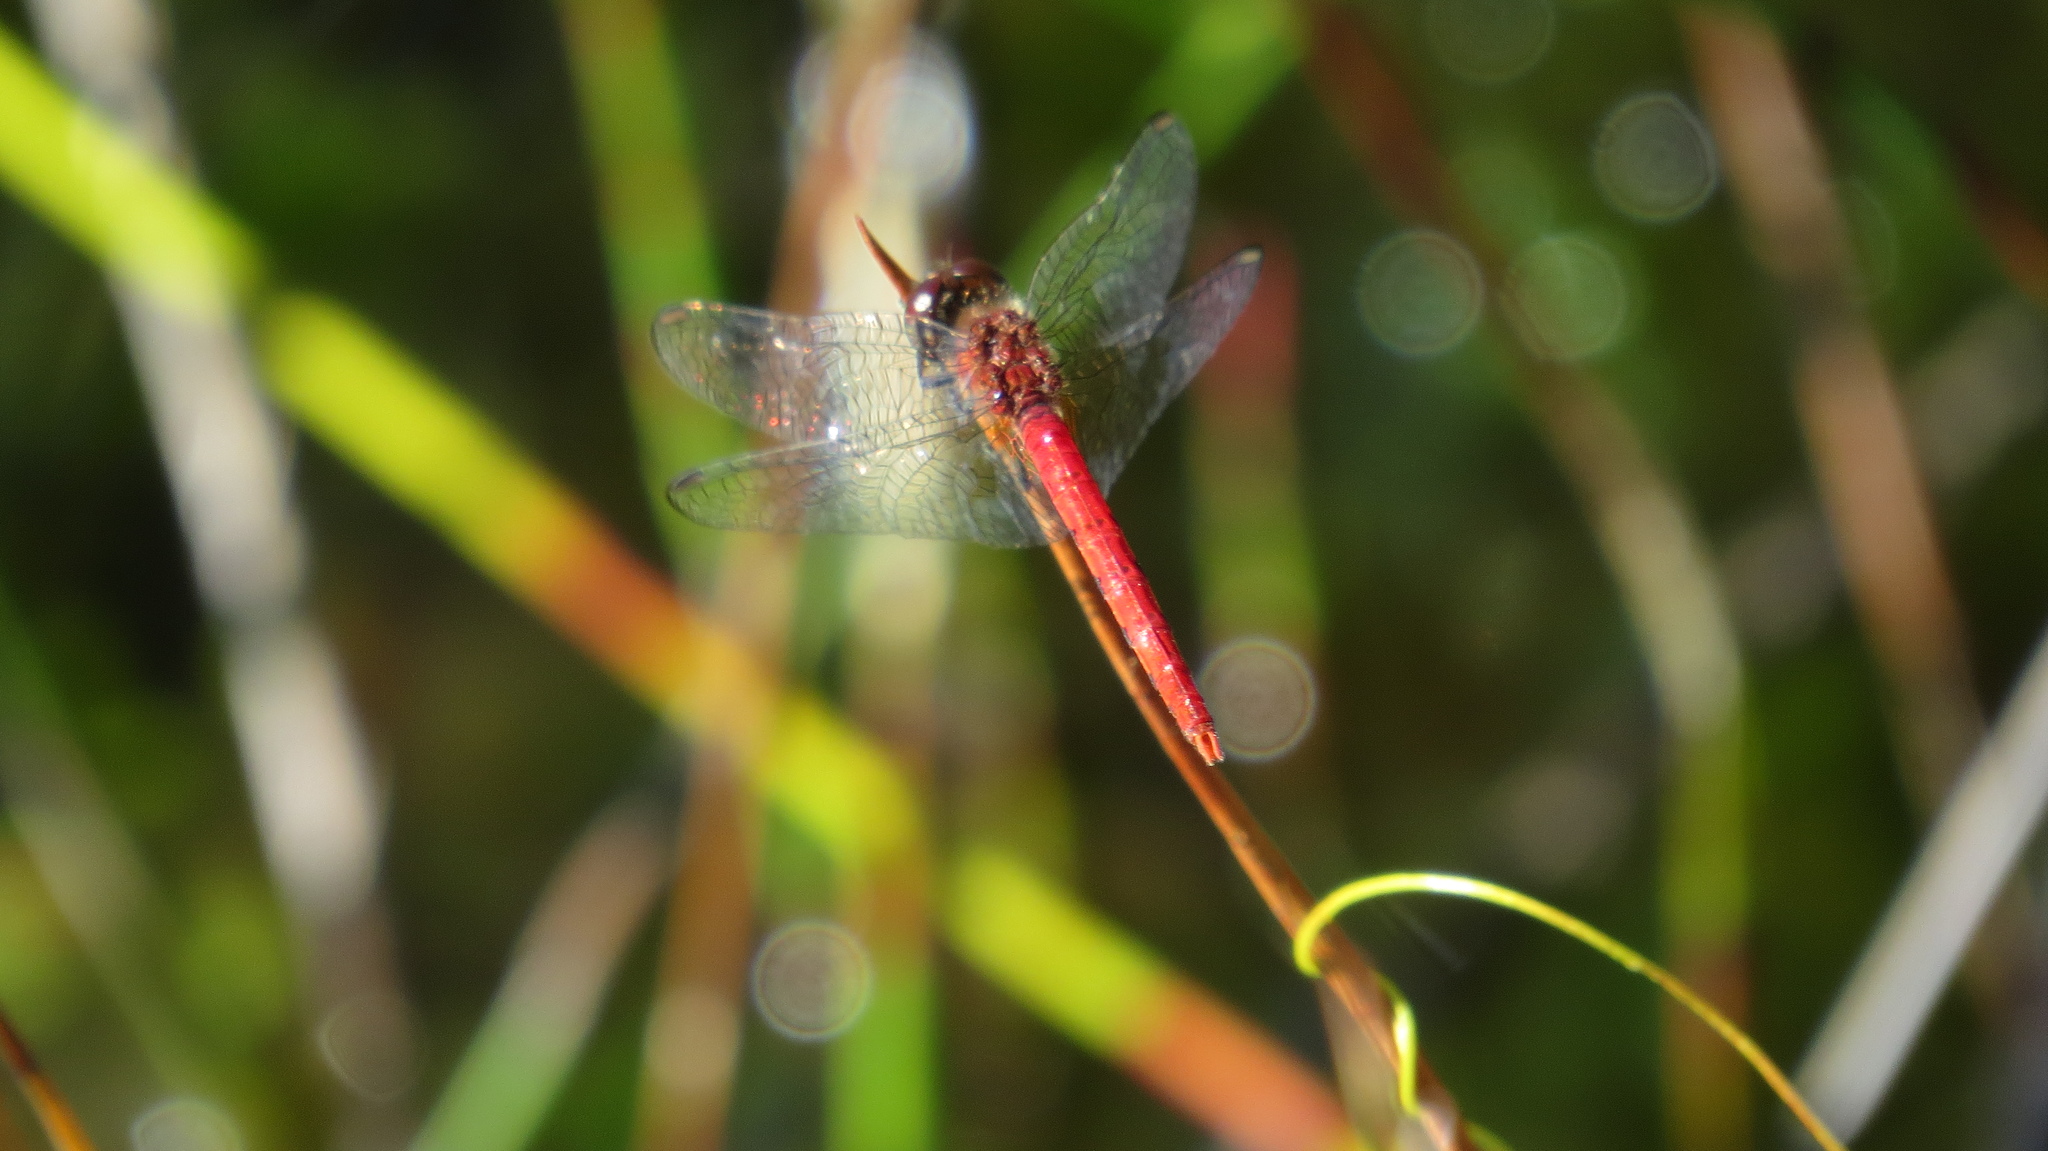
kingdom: Animalia
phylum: Arthropoda
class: Insecta
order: Odonata
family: Libellulidae
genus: Nannodiplax
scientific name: Nannodiplax rubra
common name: Pygmy percher
